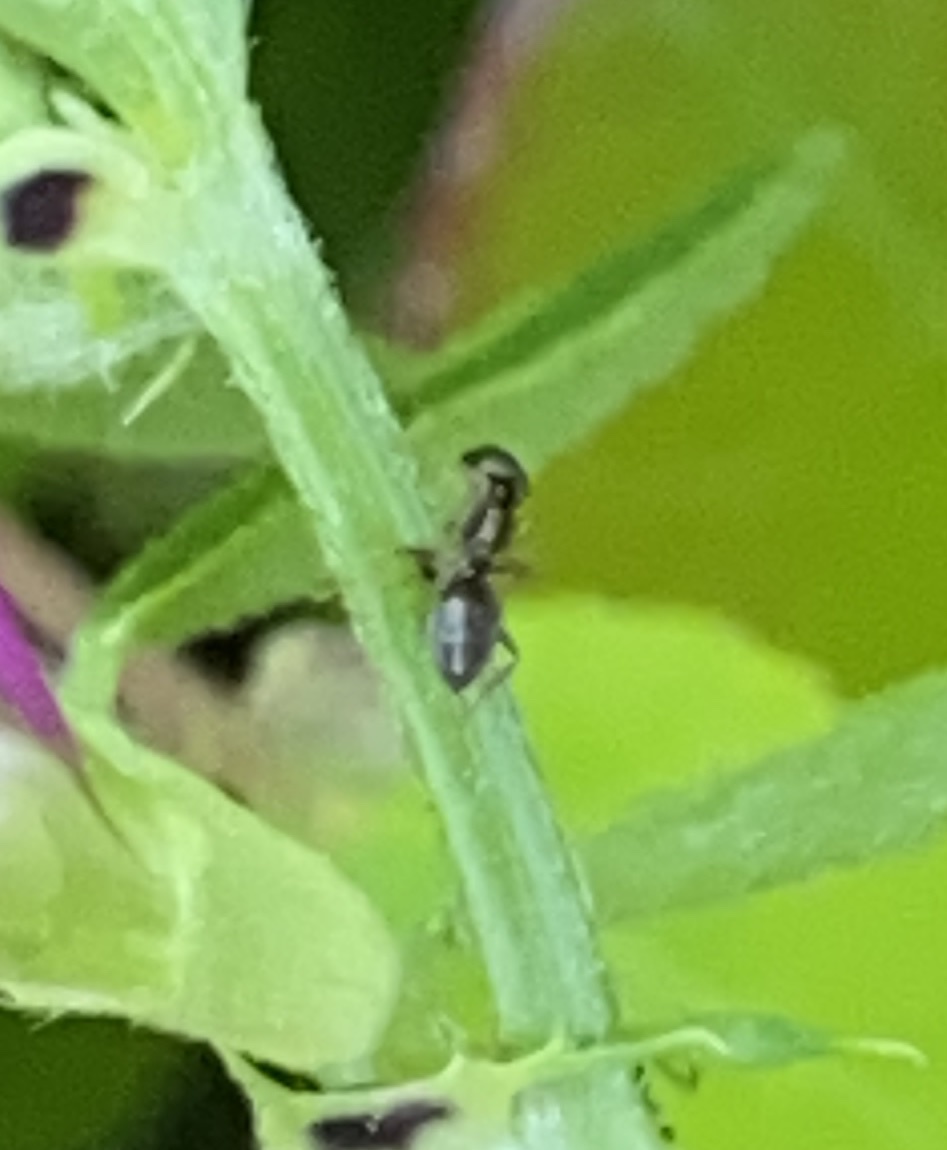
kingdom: Animalia
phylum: Arthropoda
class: Insecta
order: Hymenoptera
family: Formicidae
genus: Tapinoma
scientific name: Tapinoma sessile
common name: Odorous house ant
